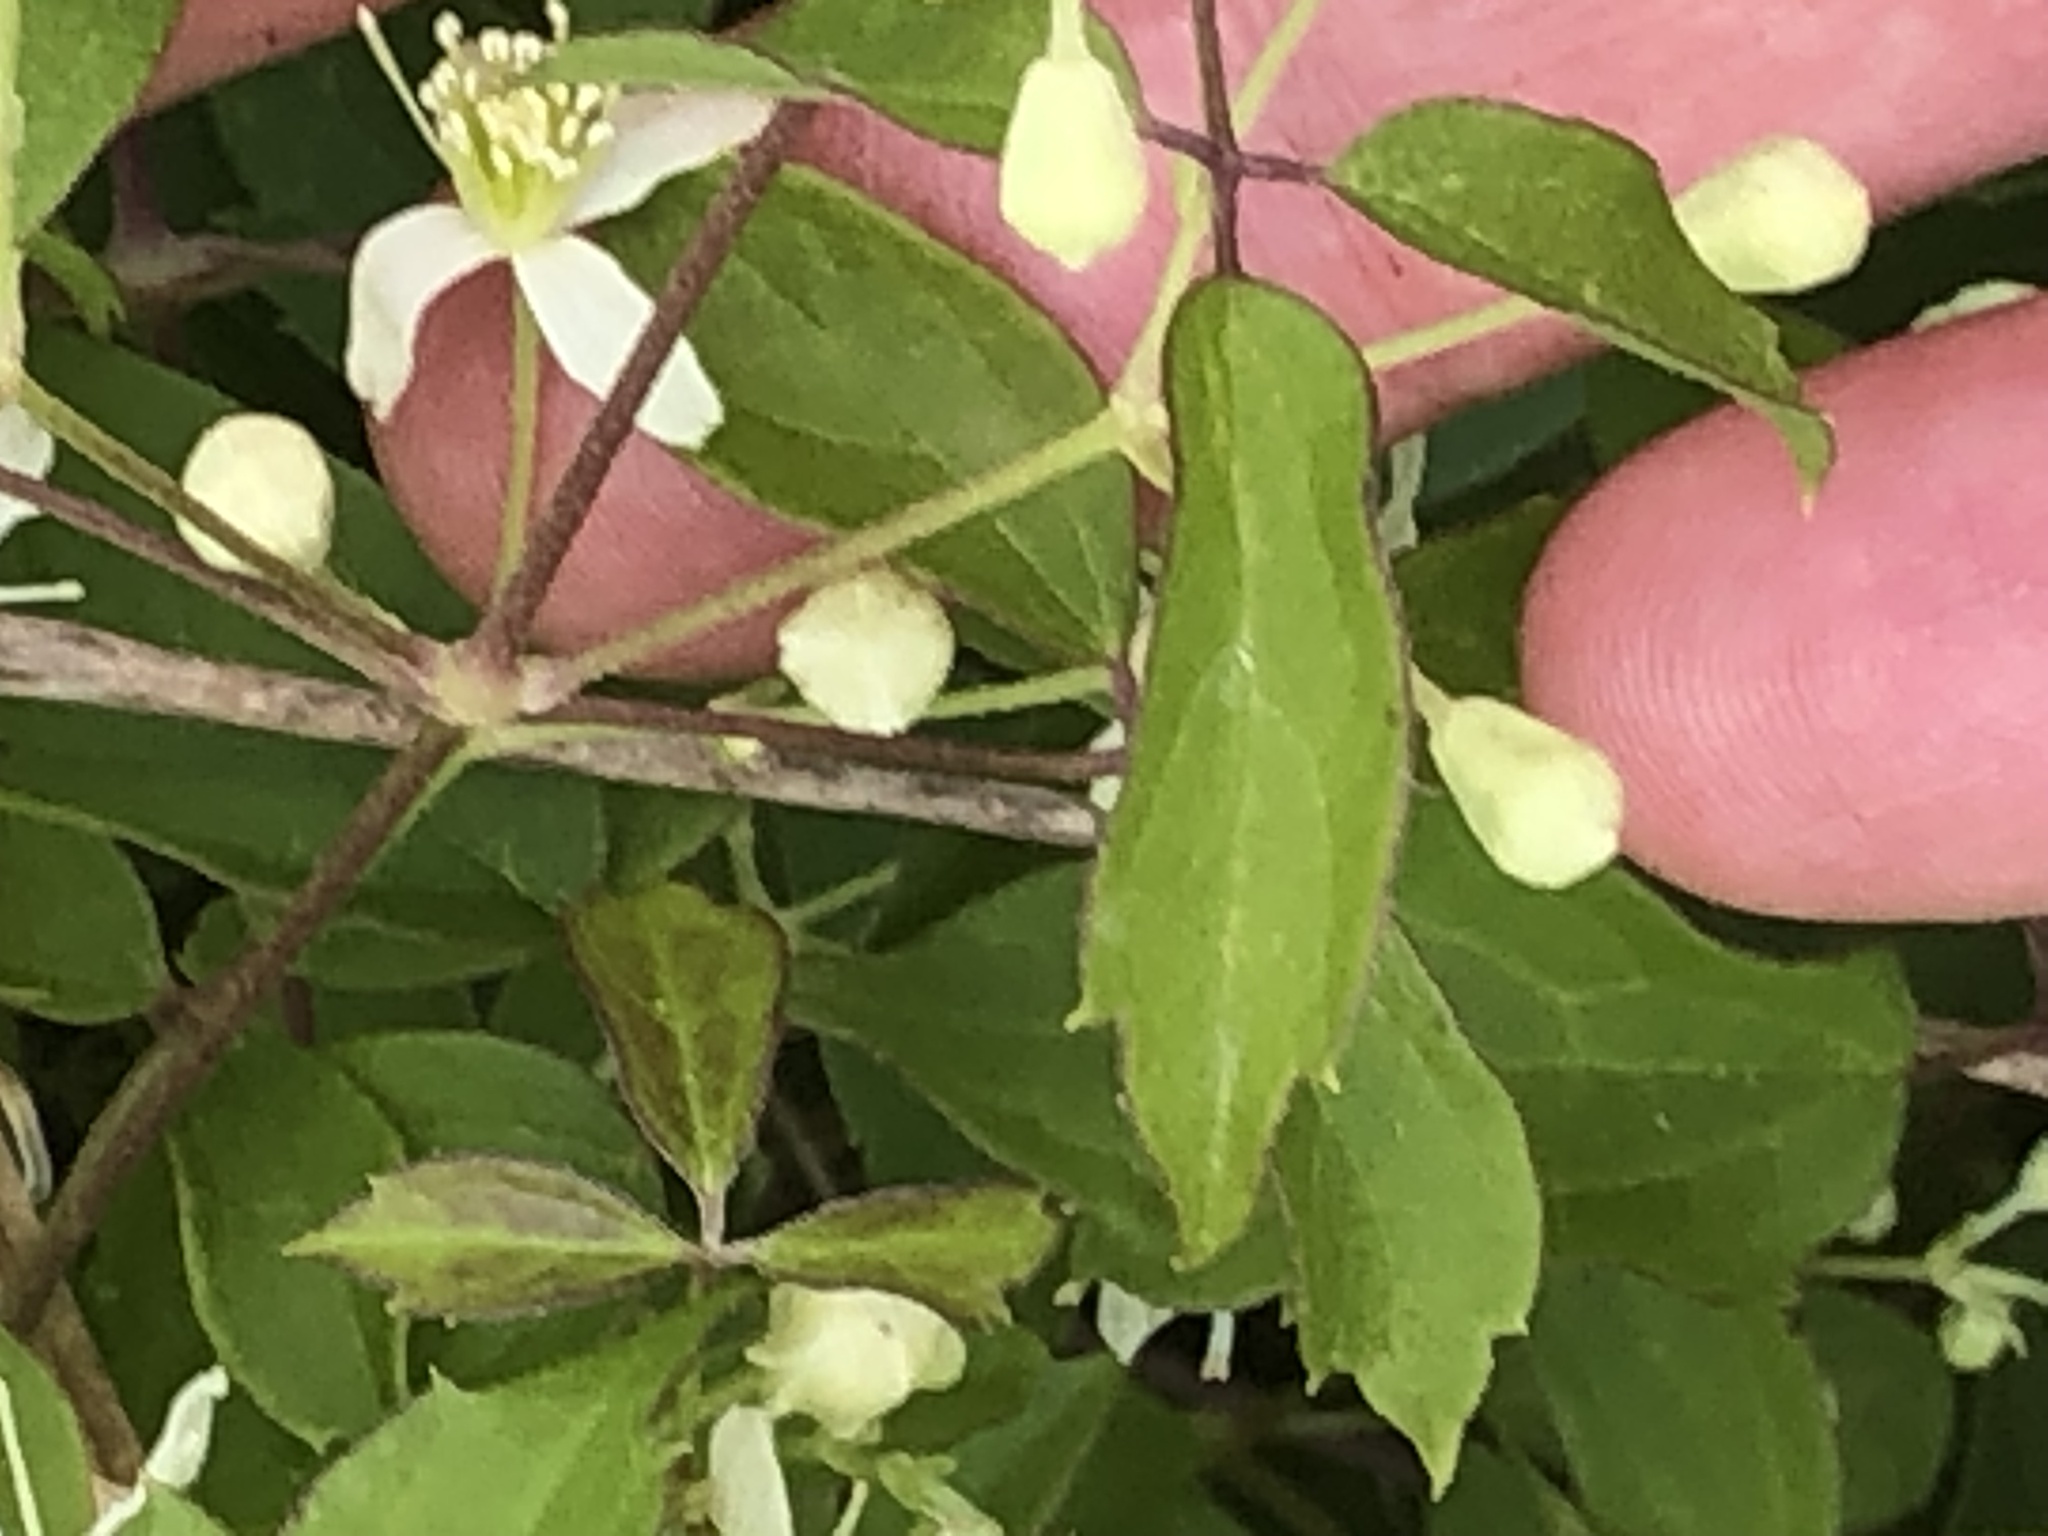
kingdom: Plantae
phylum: Tracheophyta
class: Magnoliopsida
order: Ranunculales
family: Ranunculaceae
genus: Clematis
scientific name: Clematis virginiana
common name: Virgin's-bower
